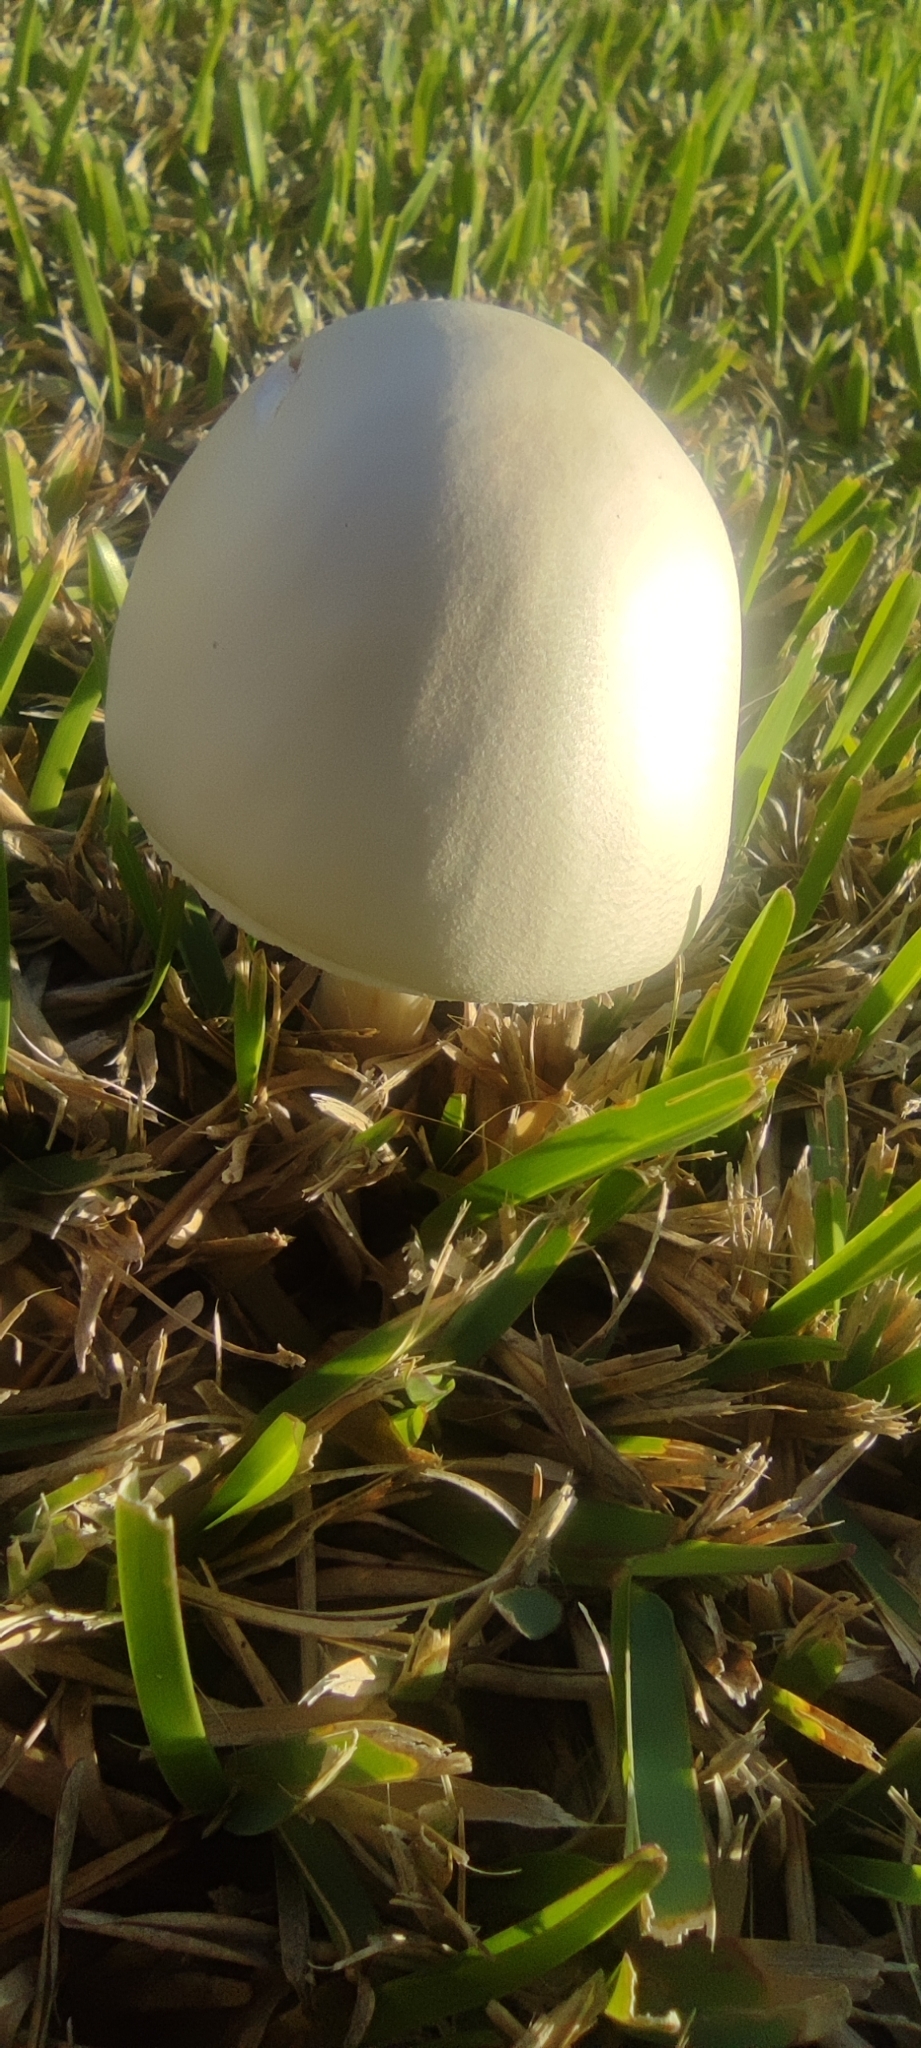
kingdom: Fungi
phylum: Basidiomycota
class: Agaricomycetes
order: Agaricales
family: Agaricaceae
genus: Leucoagaricus
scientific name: Leucoagaricus leucothites
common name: White dapperling
